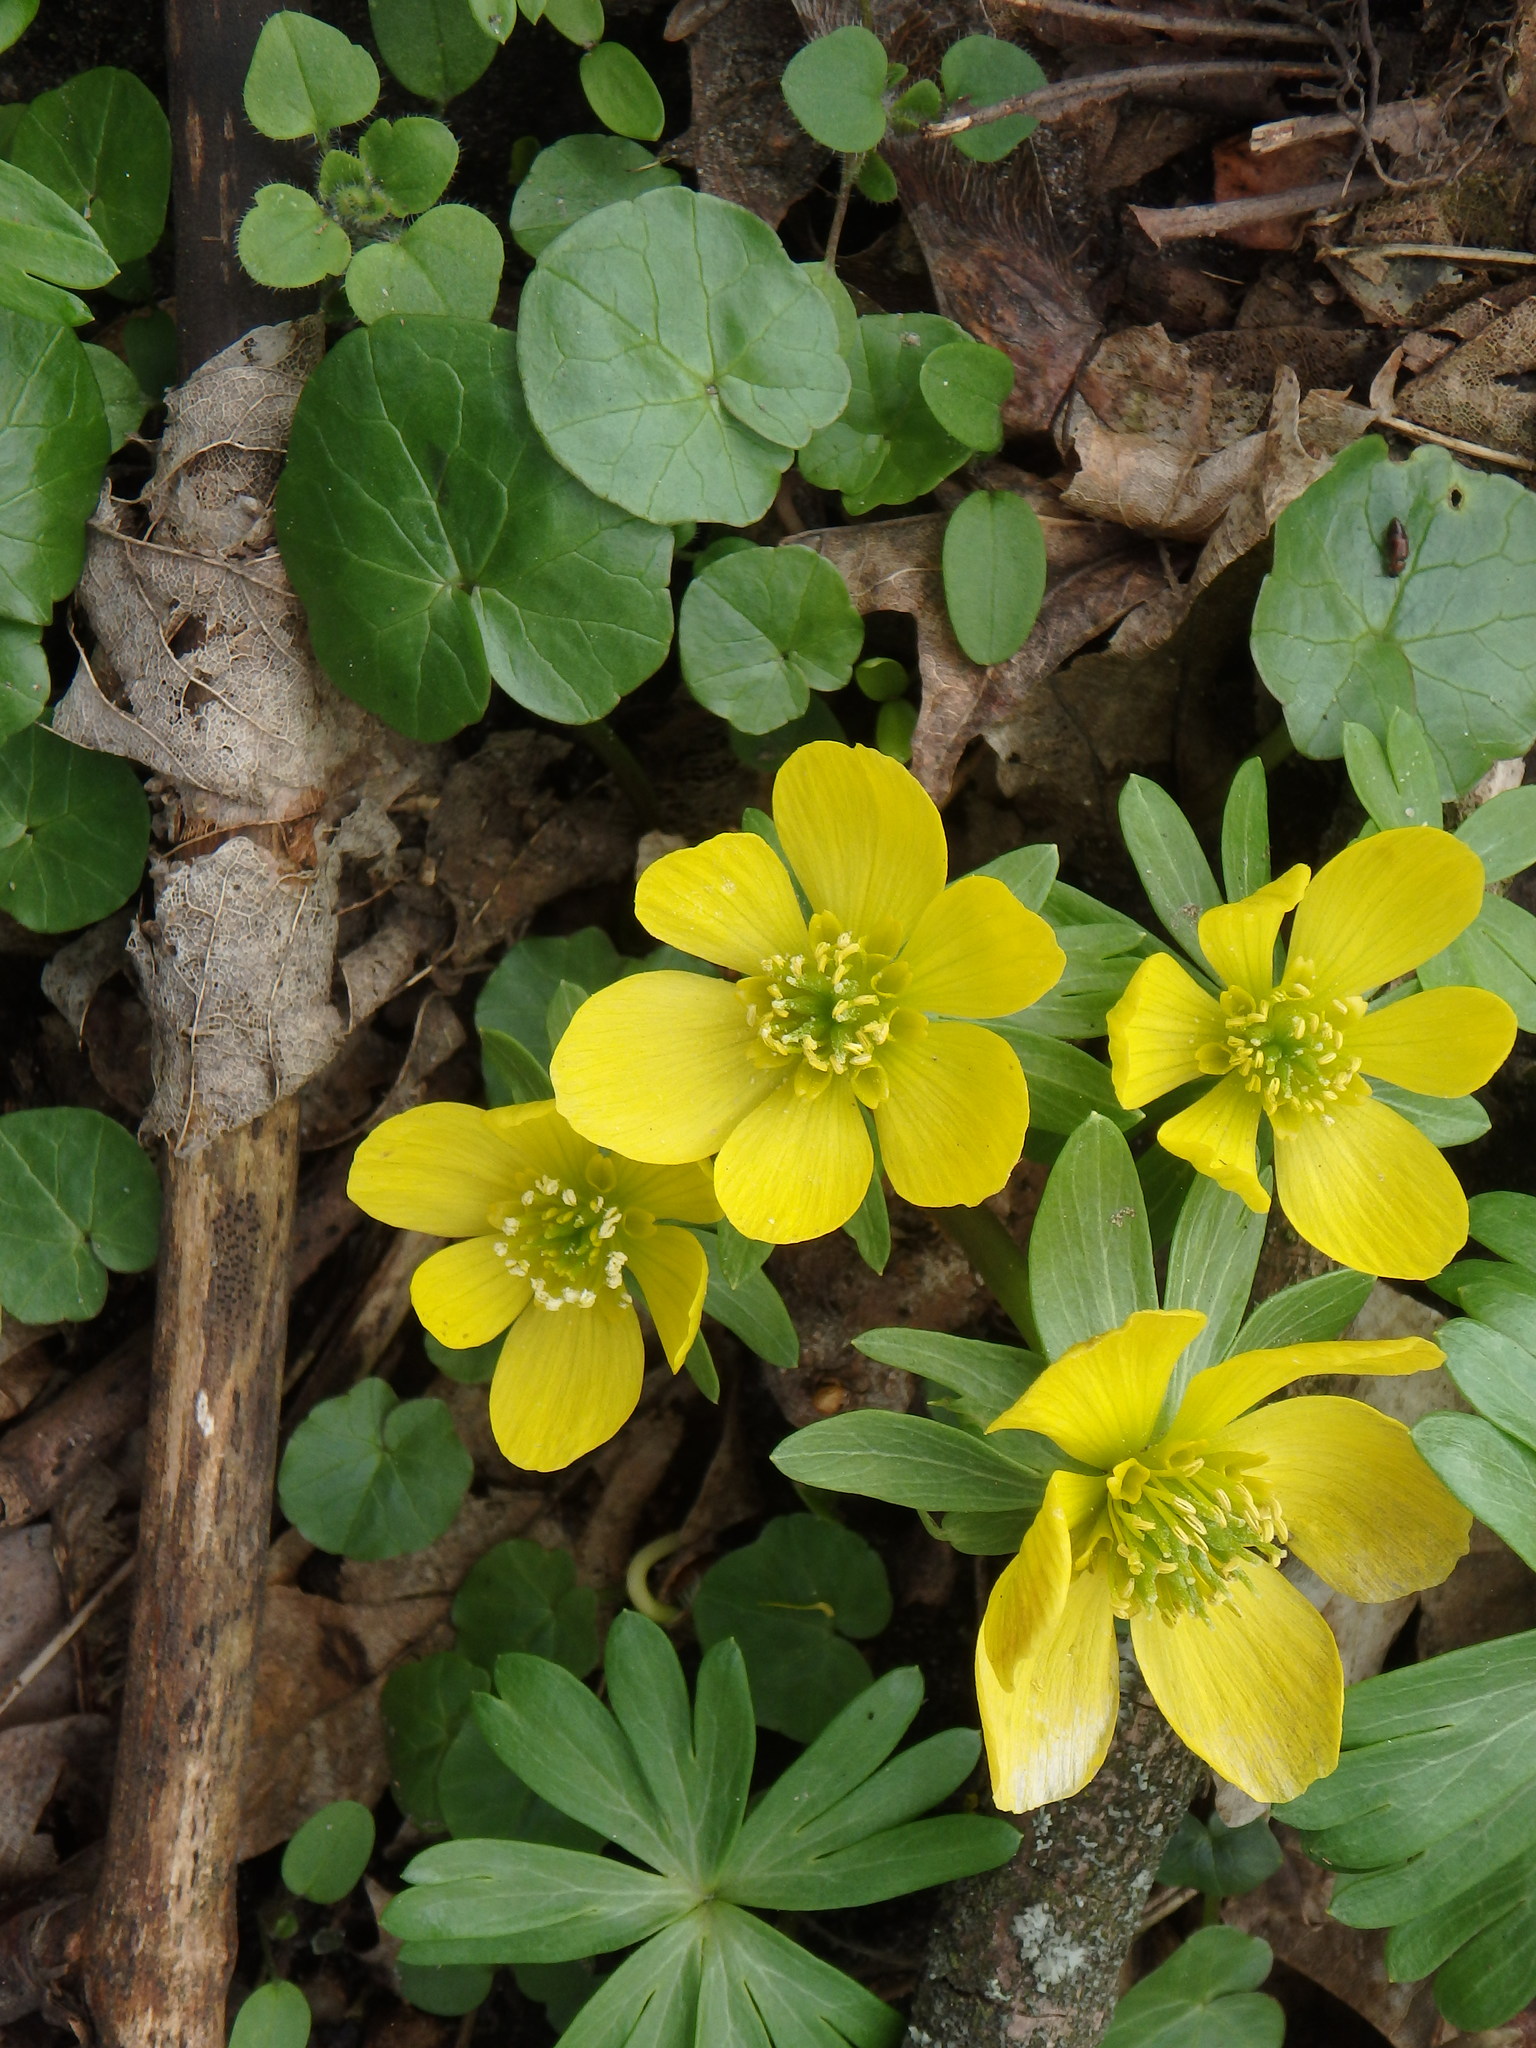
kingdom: Plantae
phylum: Tracheophyta
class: Magnoliopsida
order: Ranunculales
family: Ranunculaceae
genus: Eranthis
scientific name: Eranthis hyemalis
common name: Winter aconite
